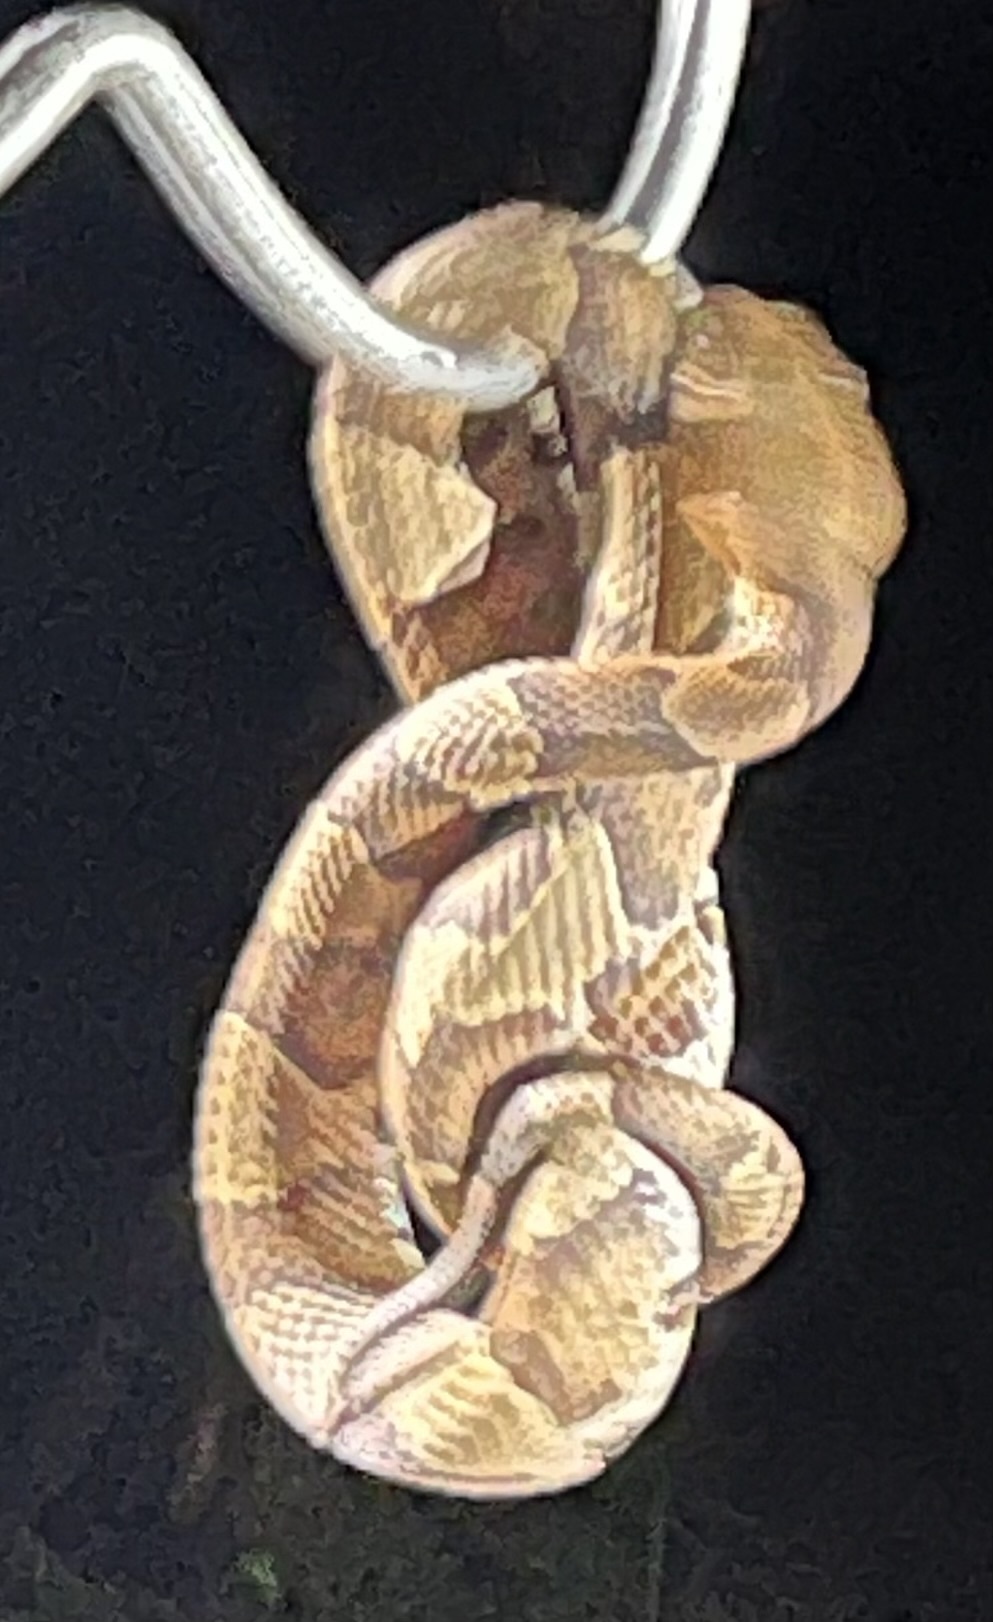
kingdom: Animalia
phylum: Chordata
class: Squamata
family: Viperidae
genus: Agkistrodon
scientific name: Agkistrodon contortrix
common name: Northern copperhead
